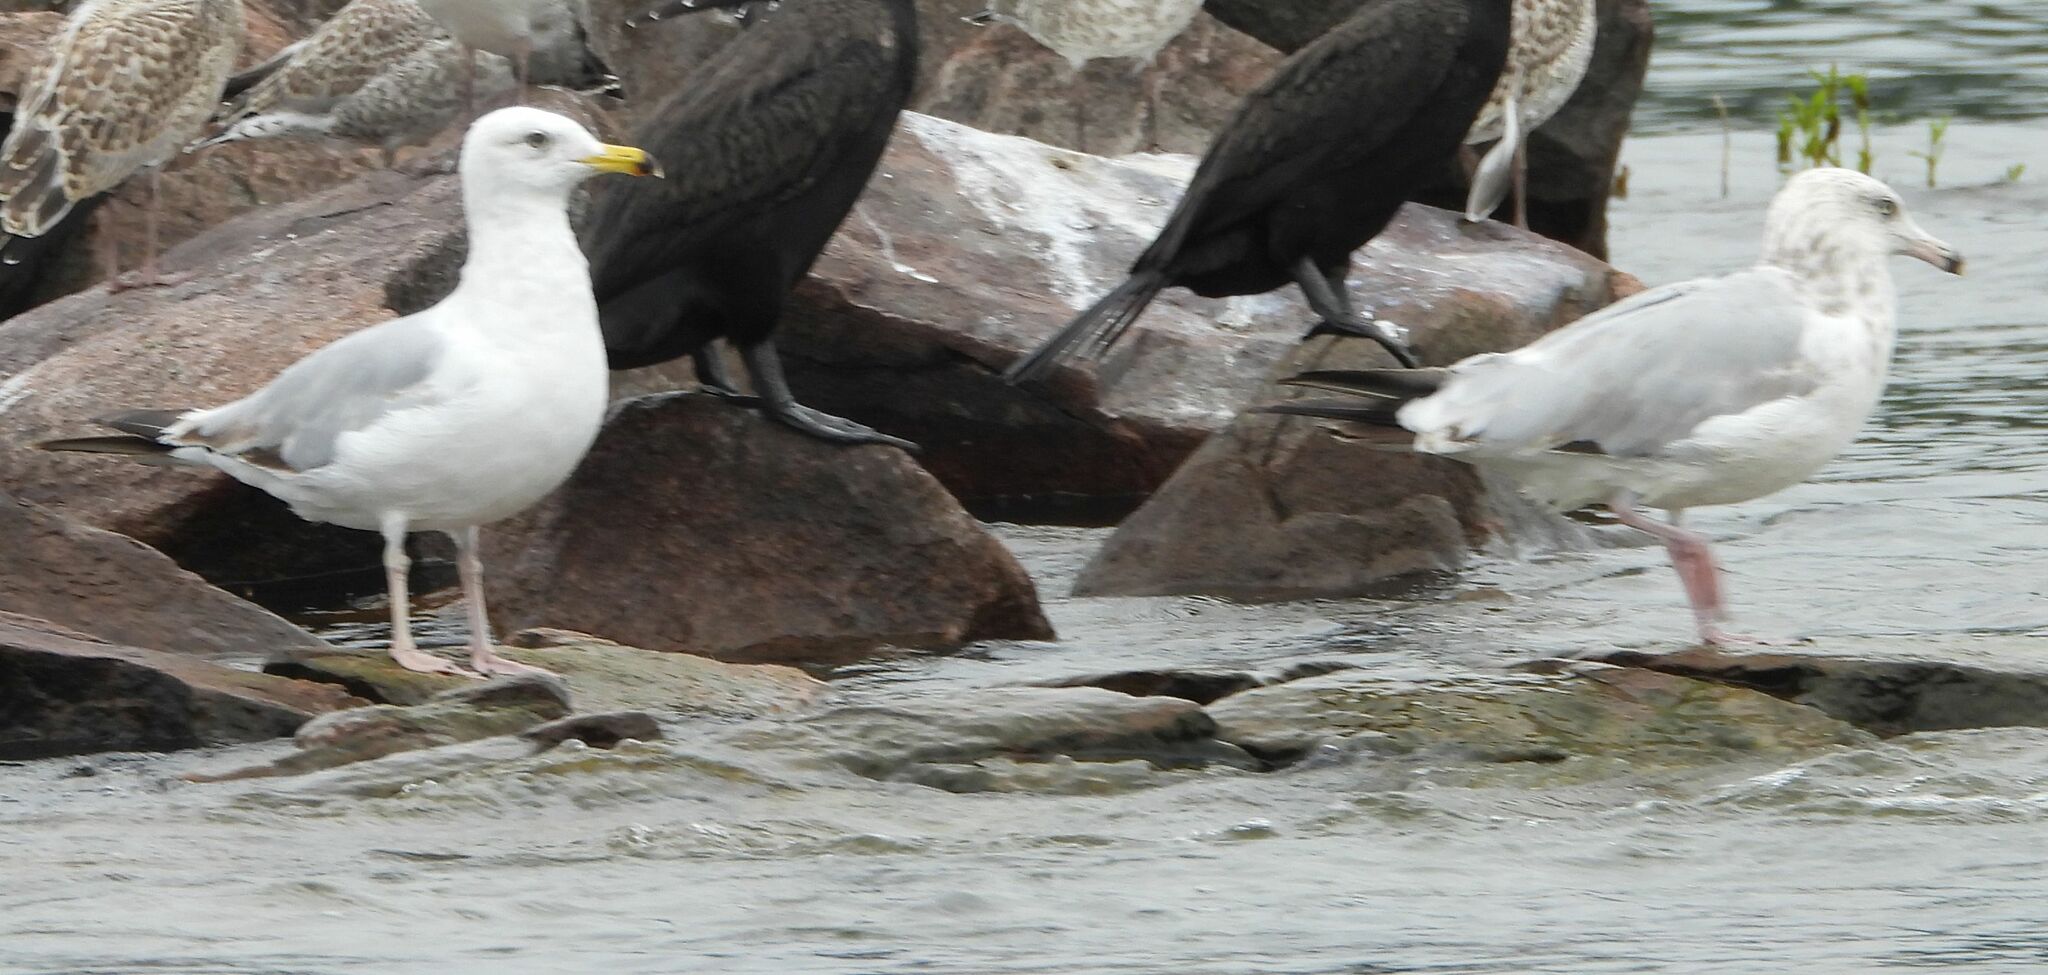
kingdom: Animalia
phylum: Chordata
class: Aves
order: Charadriiformes
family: Laridae
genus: Larus
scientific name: Larus argentatus
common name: Herring gull
